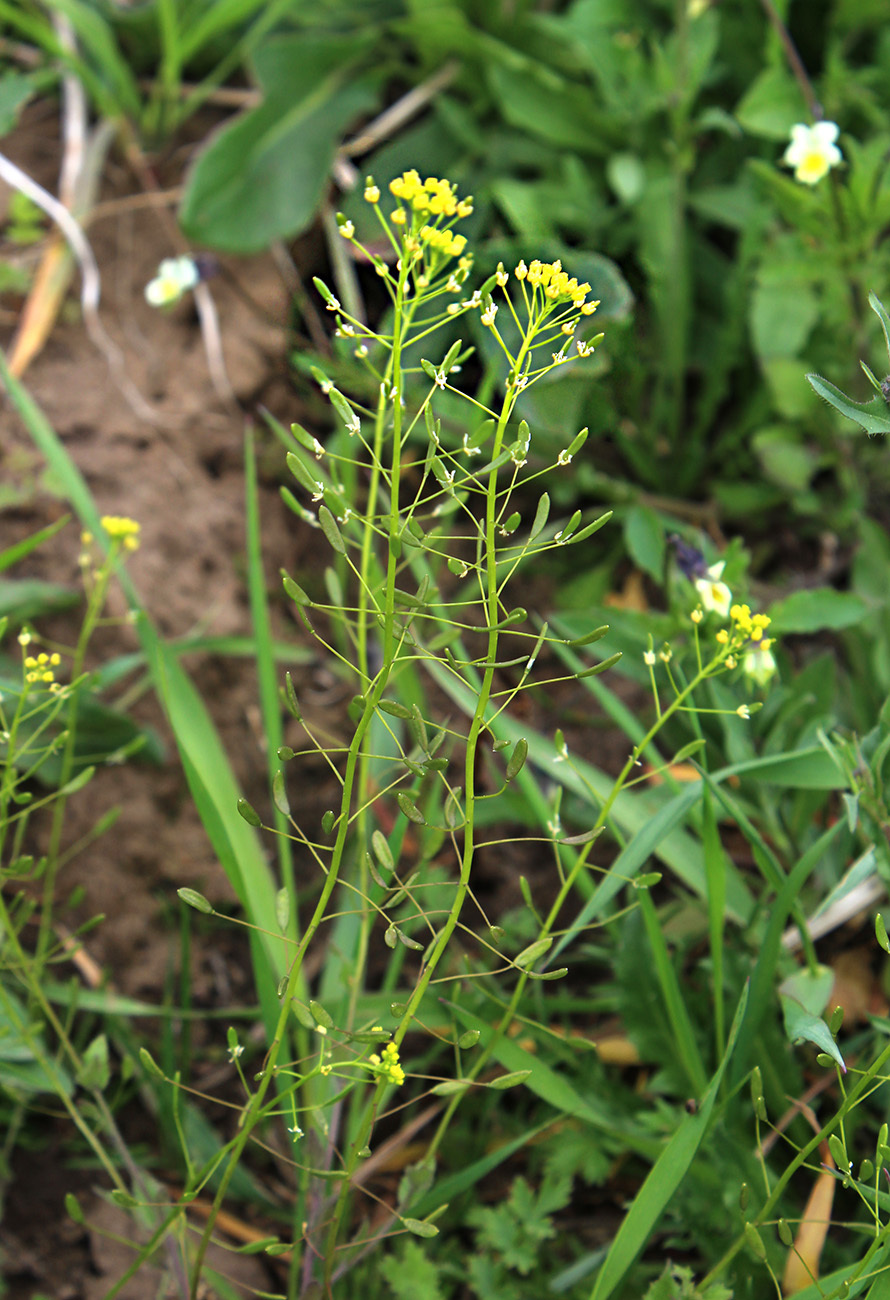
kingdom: Plantae
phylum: Tracheophyta
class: Magnoliopsida
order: Brassicales
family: Brassicaceae
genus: Draba
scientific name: Draba nemorosa
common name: Wood whitlow-grass
